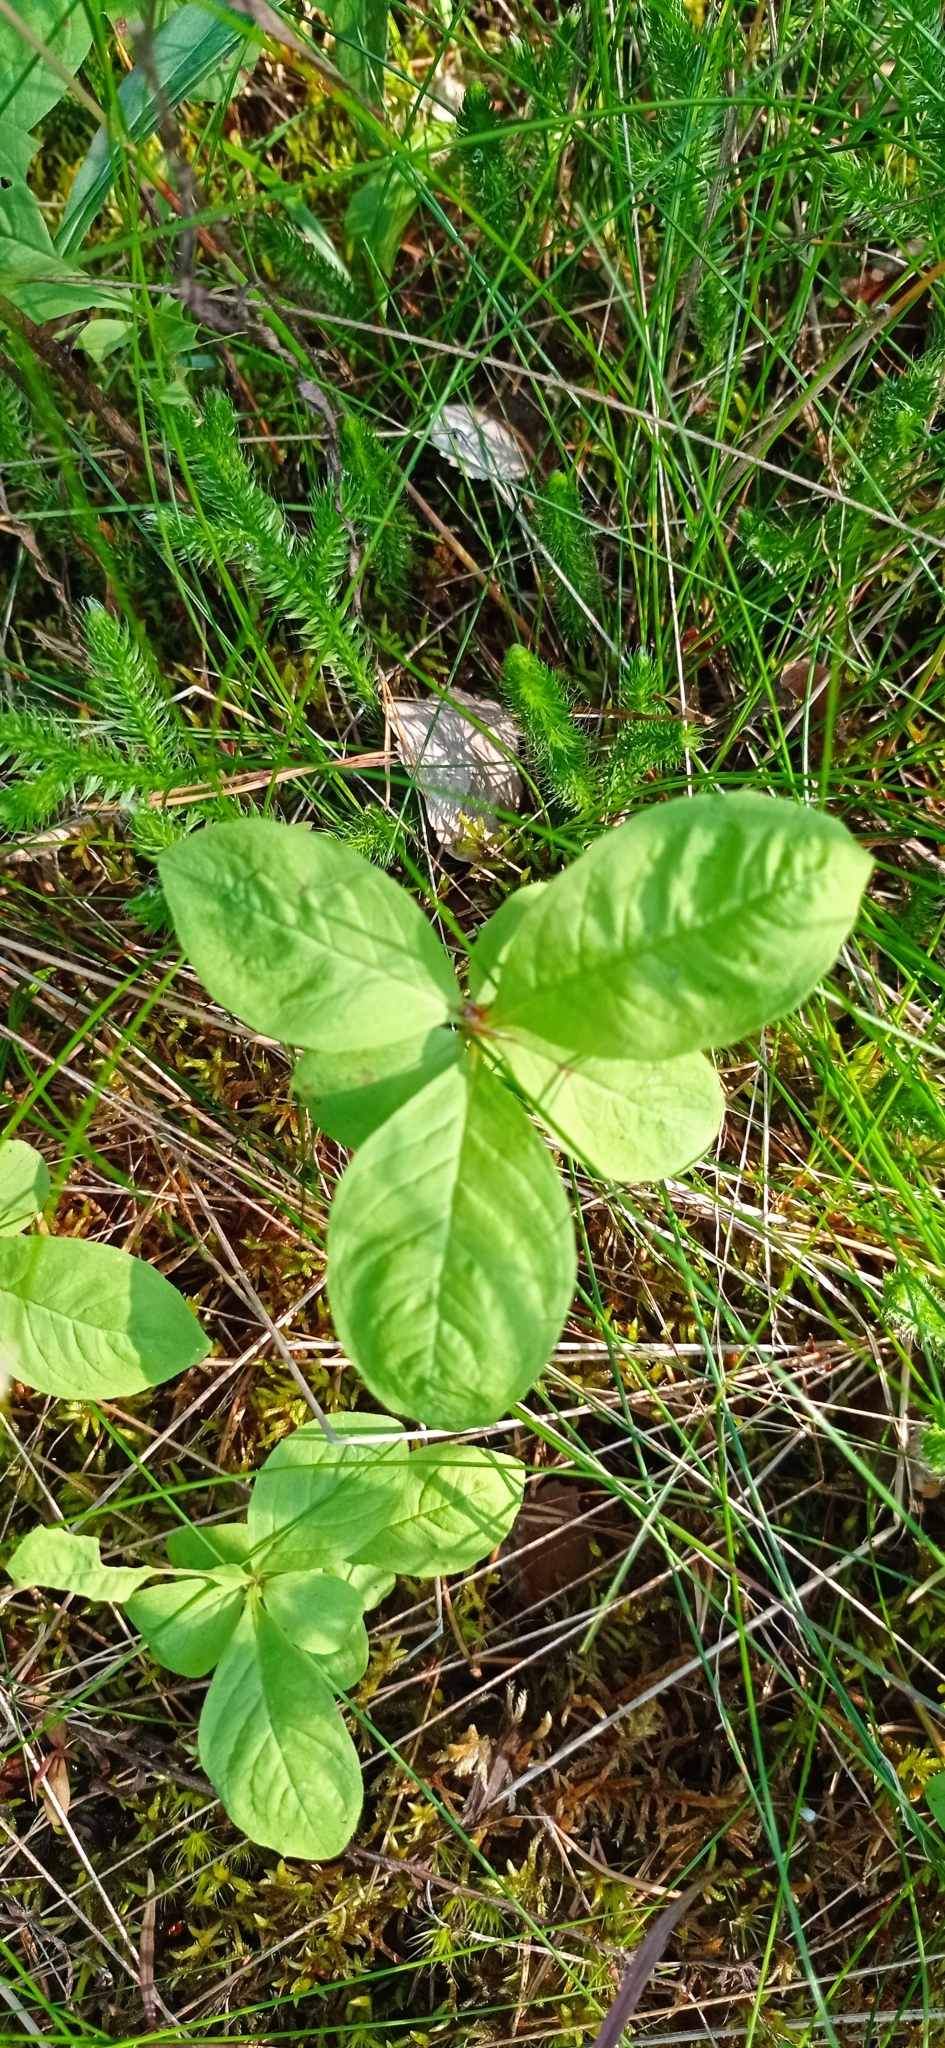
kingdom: Plantae
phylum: Tracheophyta
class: Magnoliopsida
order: Ericales
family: Primulaceae
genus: Lysimachia
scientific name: Lysimachia europaea
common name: Arctic starflower
